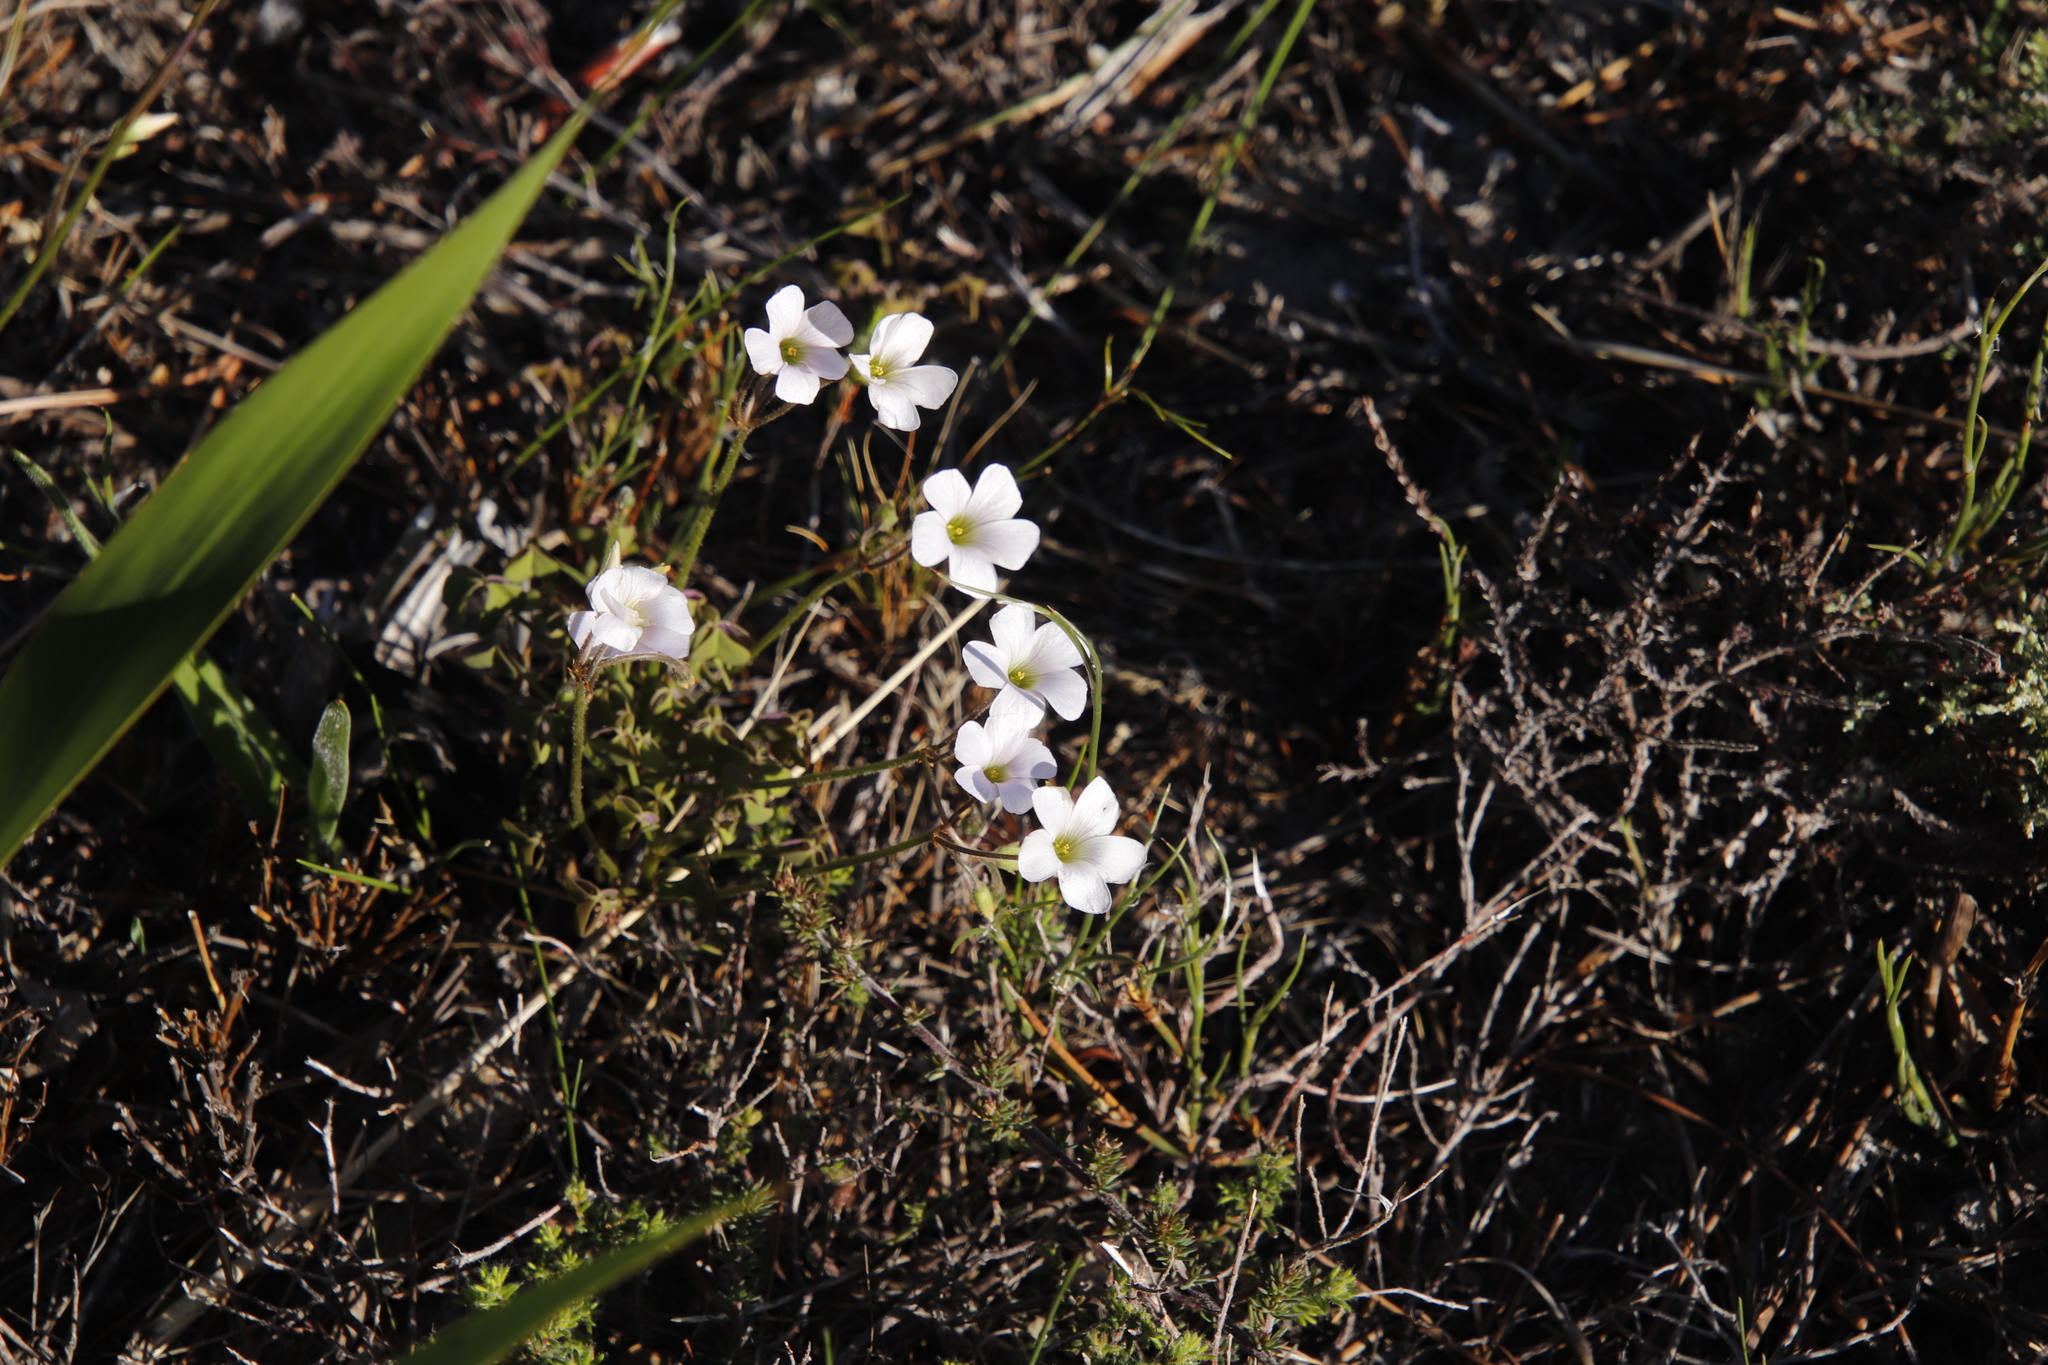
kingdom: Plantae
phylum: Tracheophyta
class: Magnoliopsida
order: Oxalidales
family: Oxalidaceae
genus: Oxalis
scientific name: Oxalis
